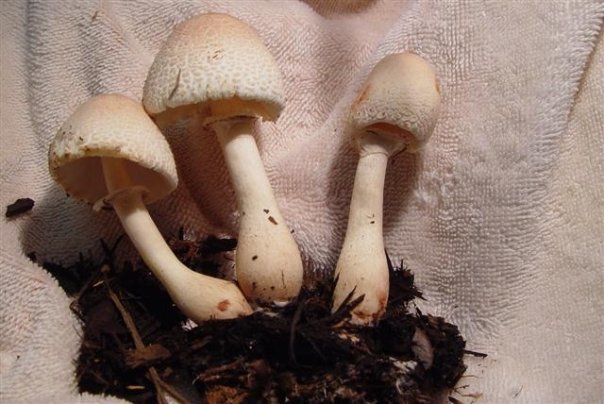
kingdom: Fungi
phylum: Basidiomycota
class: Agaricomycetes
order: Agaricales
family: Agaricaceae
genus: Leucoagaricus
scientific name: Leucoagaricus americanus
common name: Reddening lepiota
